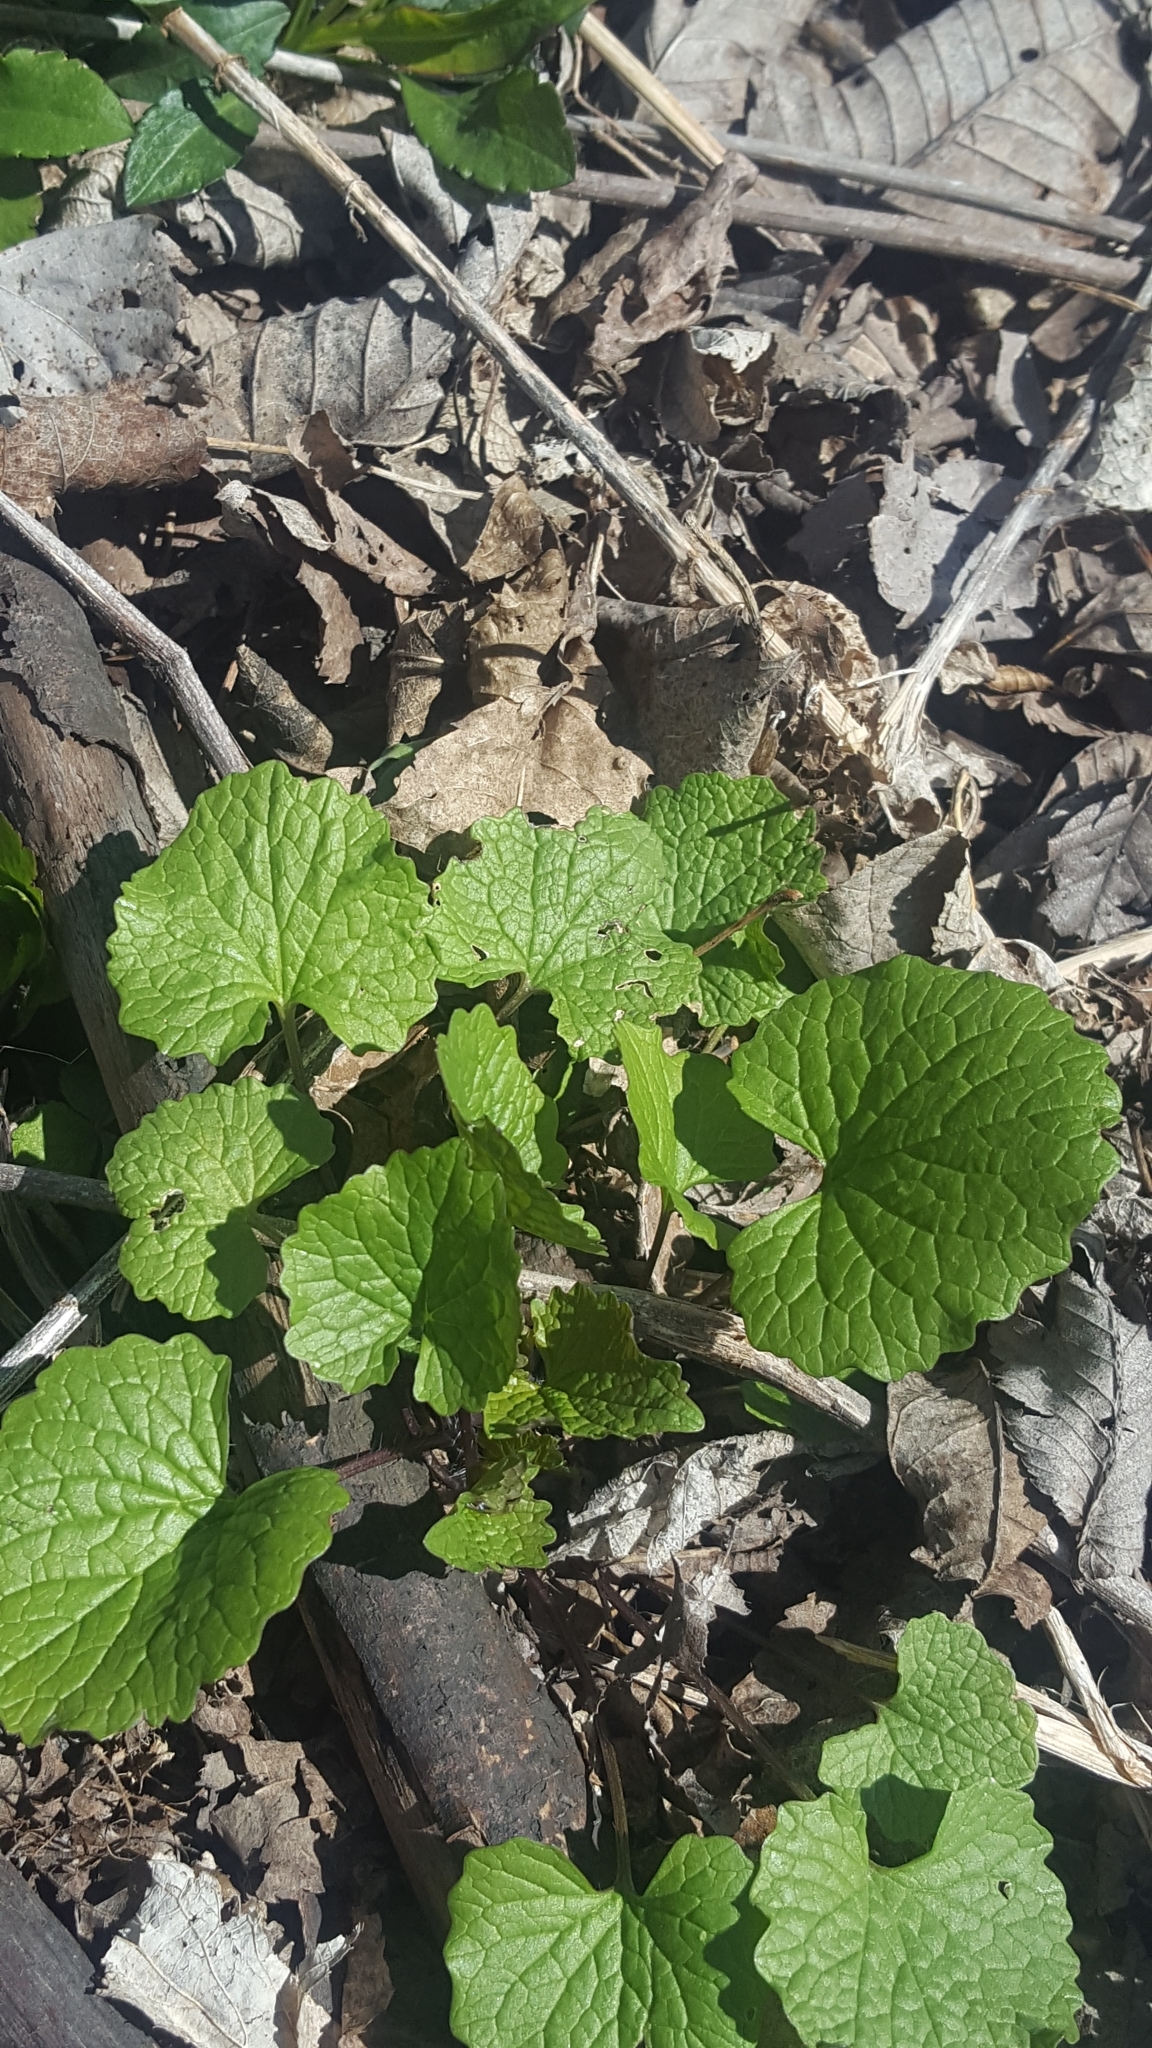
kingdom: Plantae
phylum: Tracheophyta
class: Magnoliopsida
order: Brassicales
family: Brassicaceae
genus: Alliaria
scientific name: Alliaria petiolata
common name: Garlic mustard
